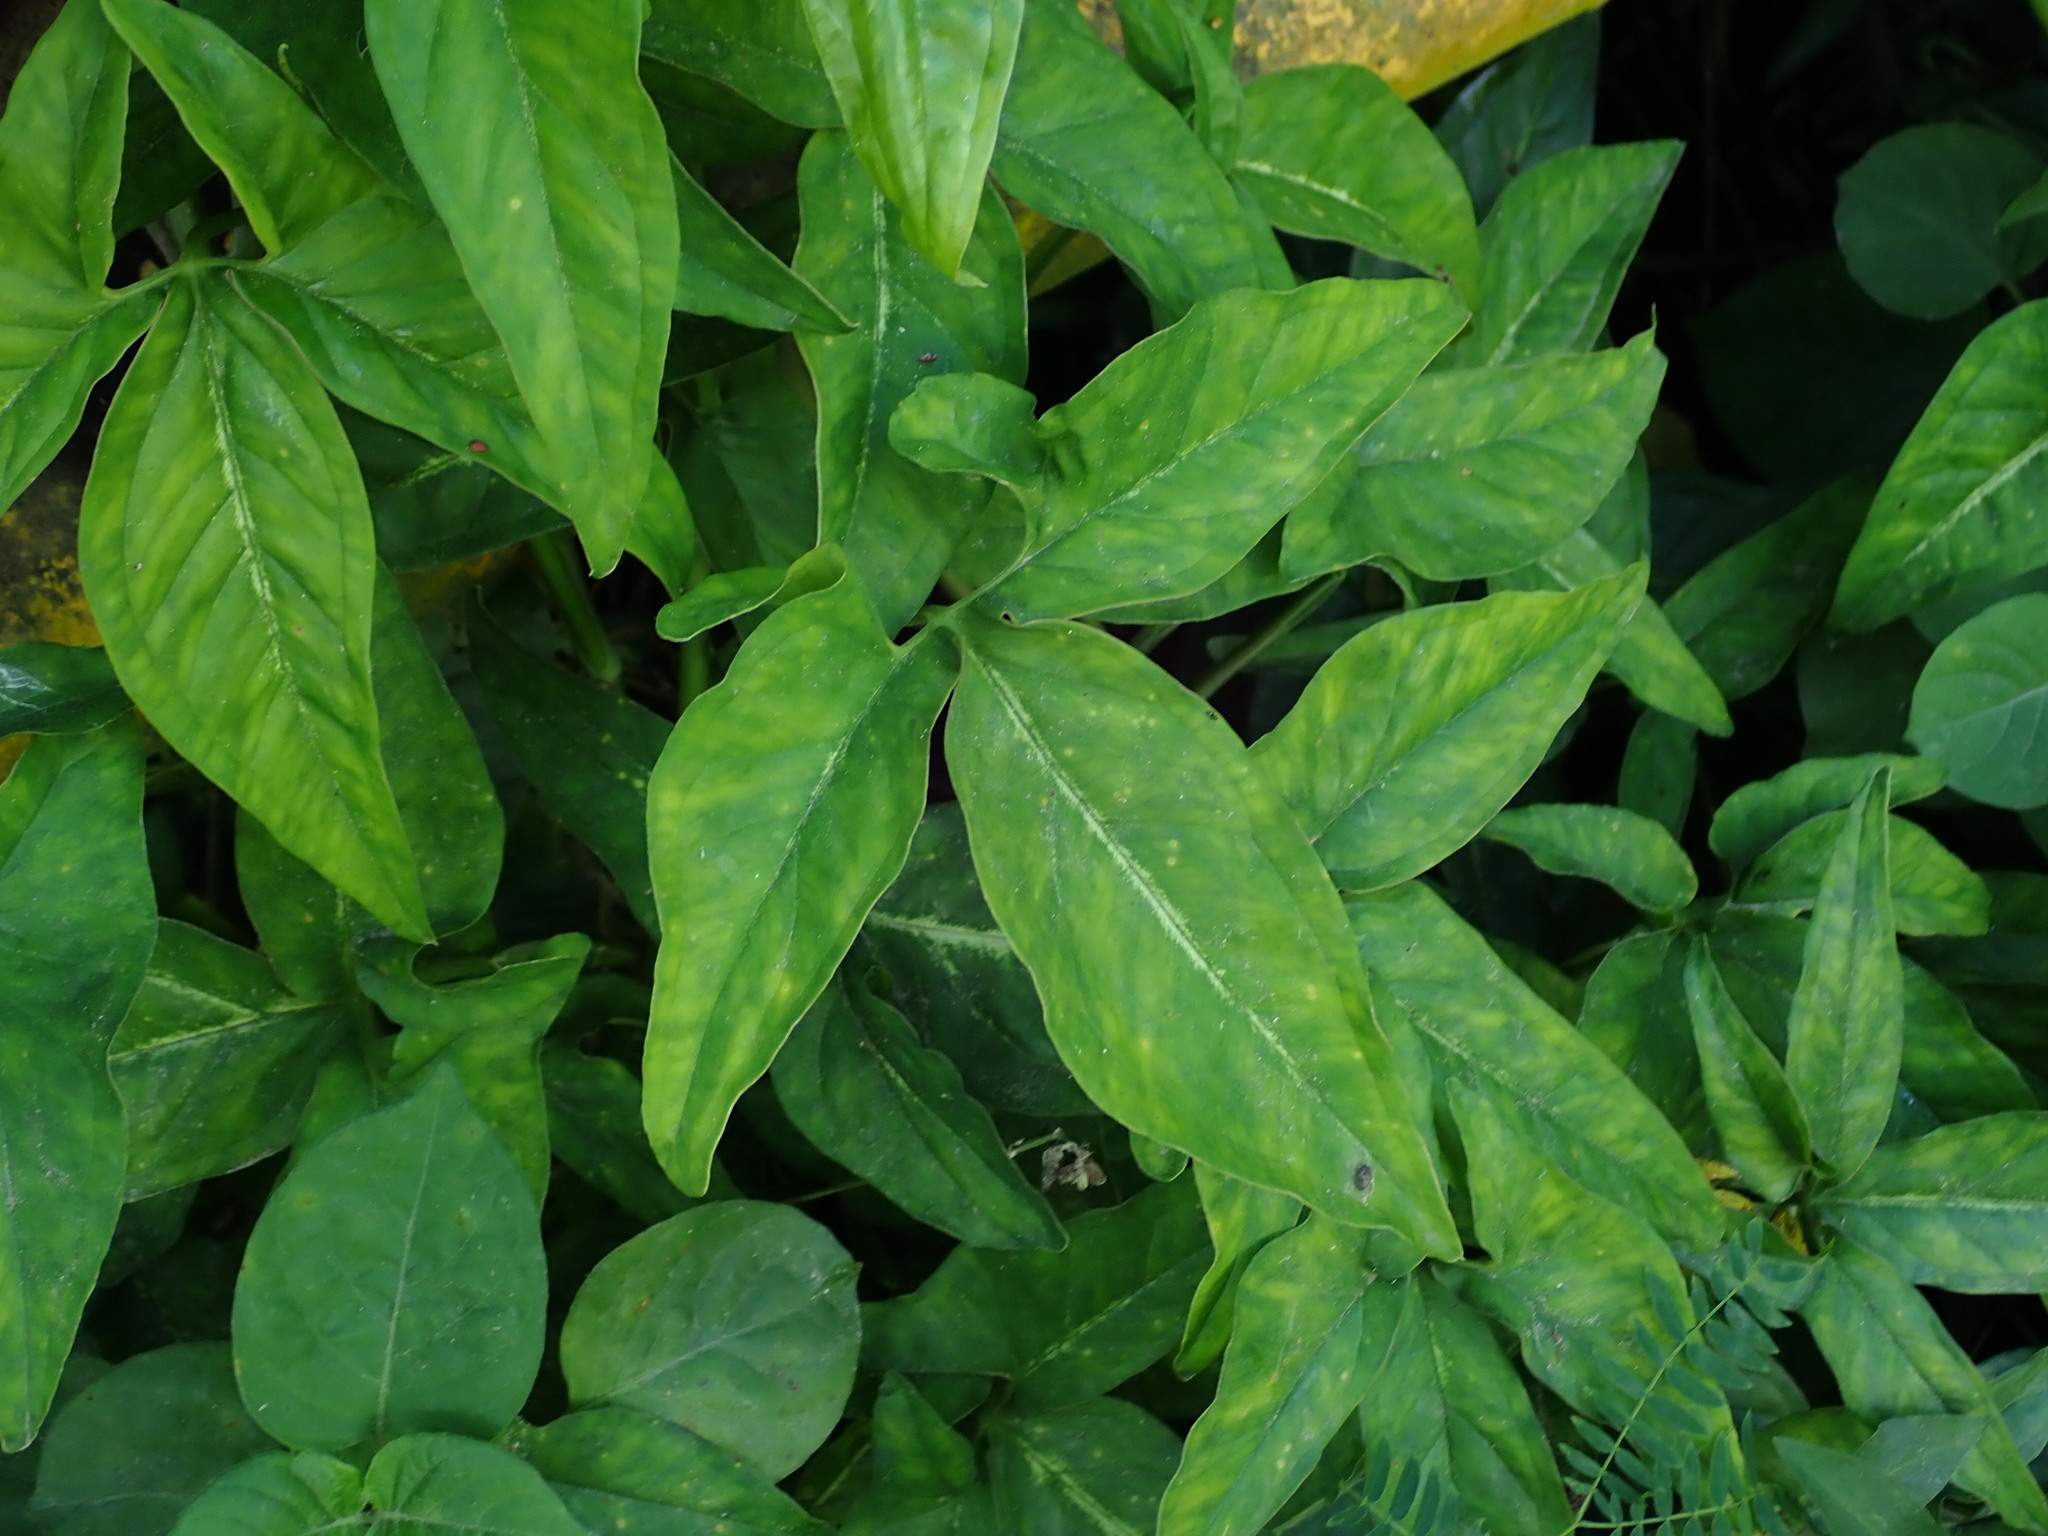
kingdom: Plantae
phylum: Tracheophyta
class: Liliopsida
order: Alismatales
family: Araceae
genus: Syngonium
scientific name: Syngonium podophyllum
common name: American evergreen
